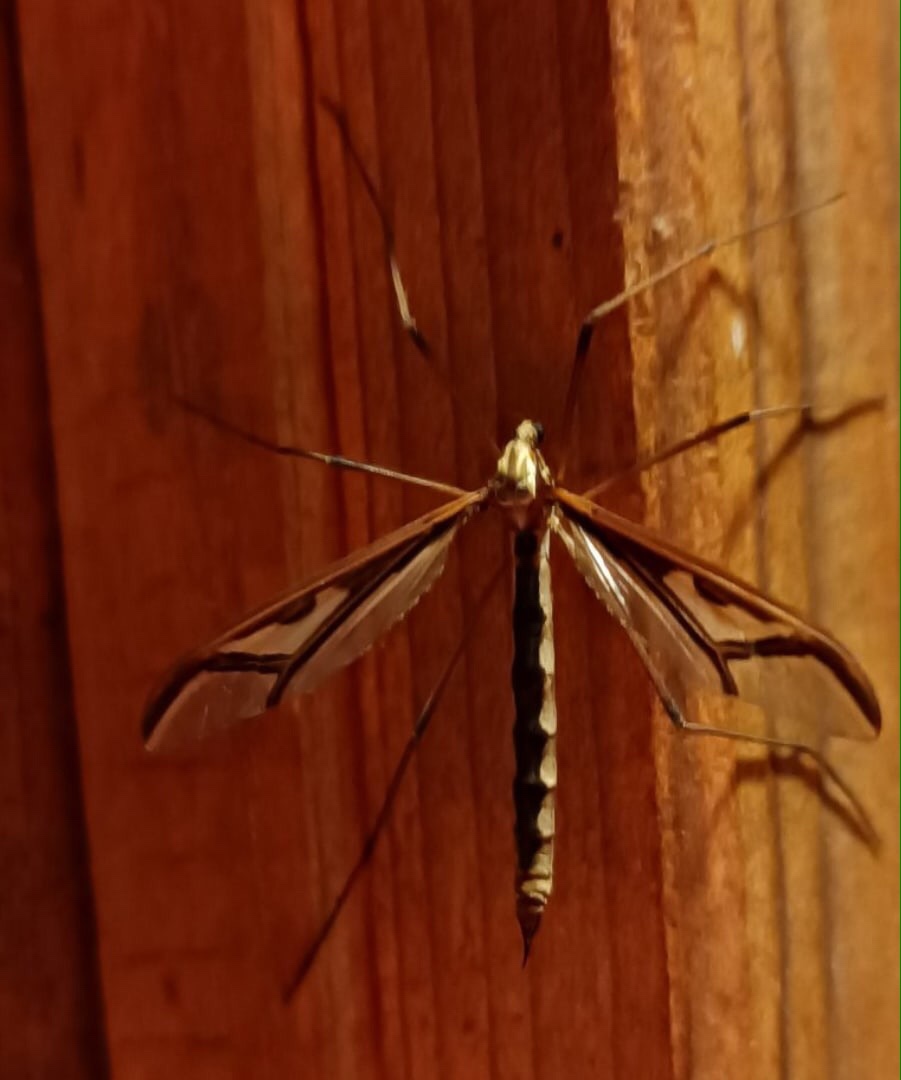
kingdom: Animalia
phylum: Arthropoda
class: Insecta
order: Diptera
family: Pediciidae
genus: Pedicia
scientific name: Pedicia rivosa
